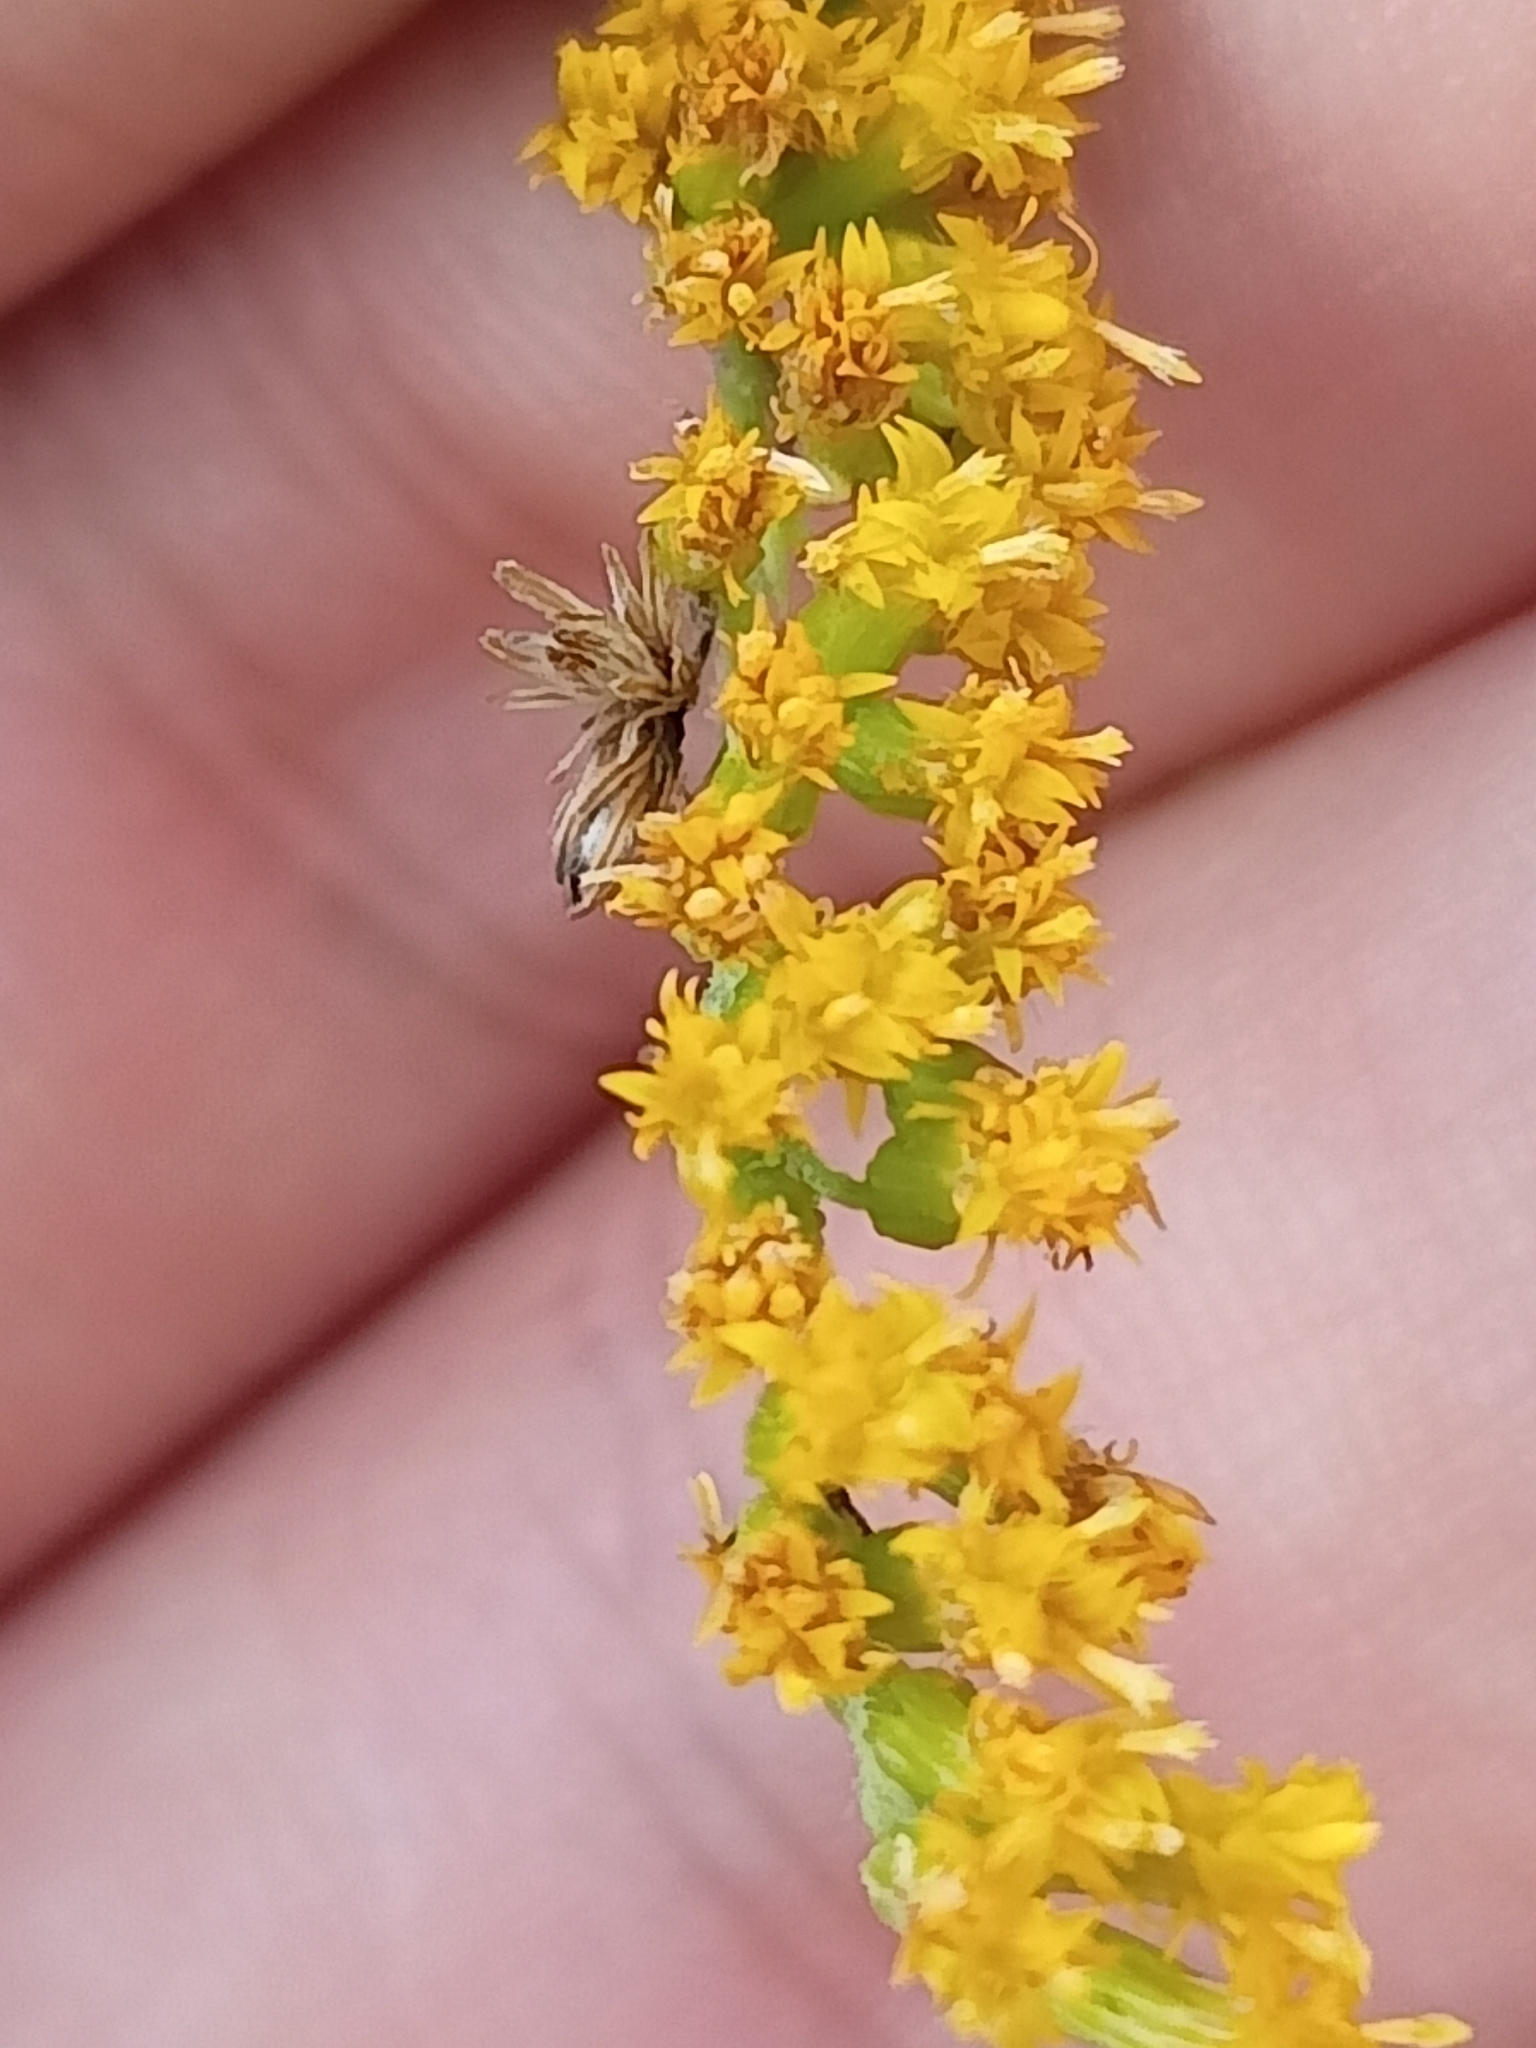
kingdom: Plantae
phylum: Tracheophyta
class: Magnoliopsida
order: Asterales
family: Asteraceae
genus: Solidago
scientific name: Solidago canadensis
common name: Canada goldenrod
